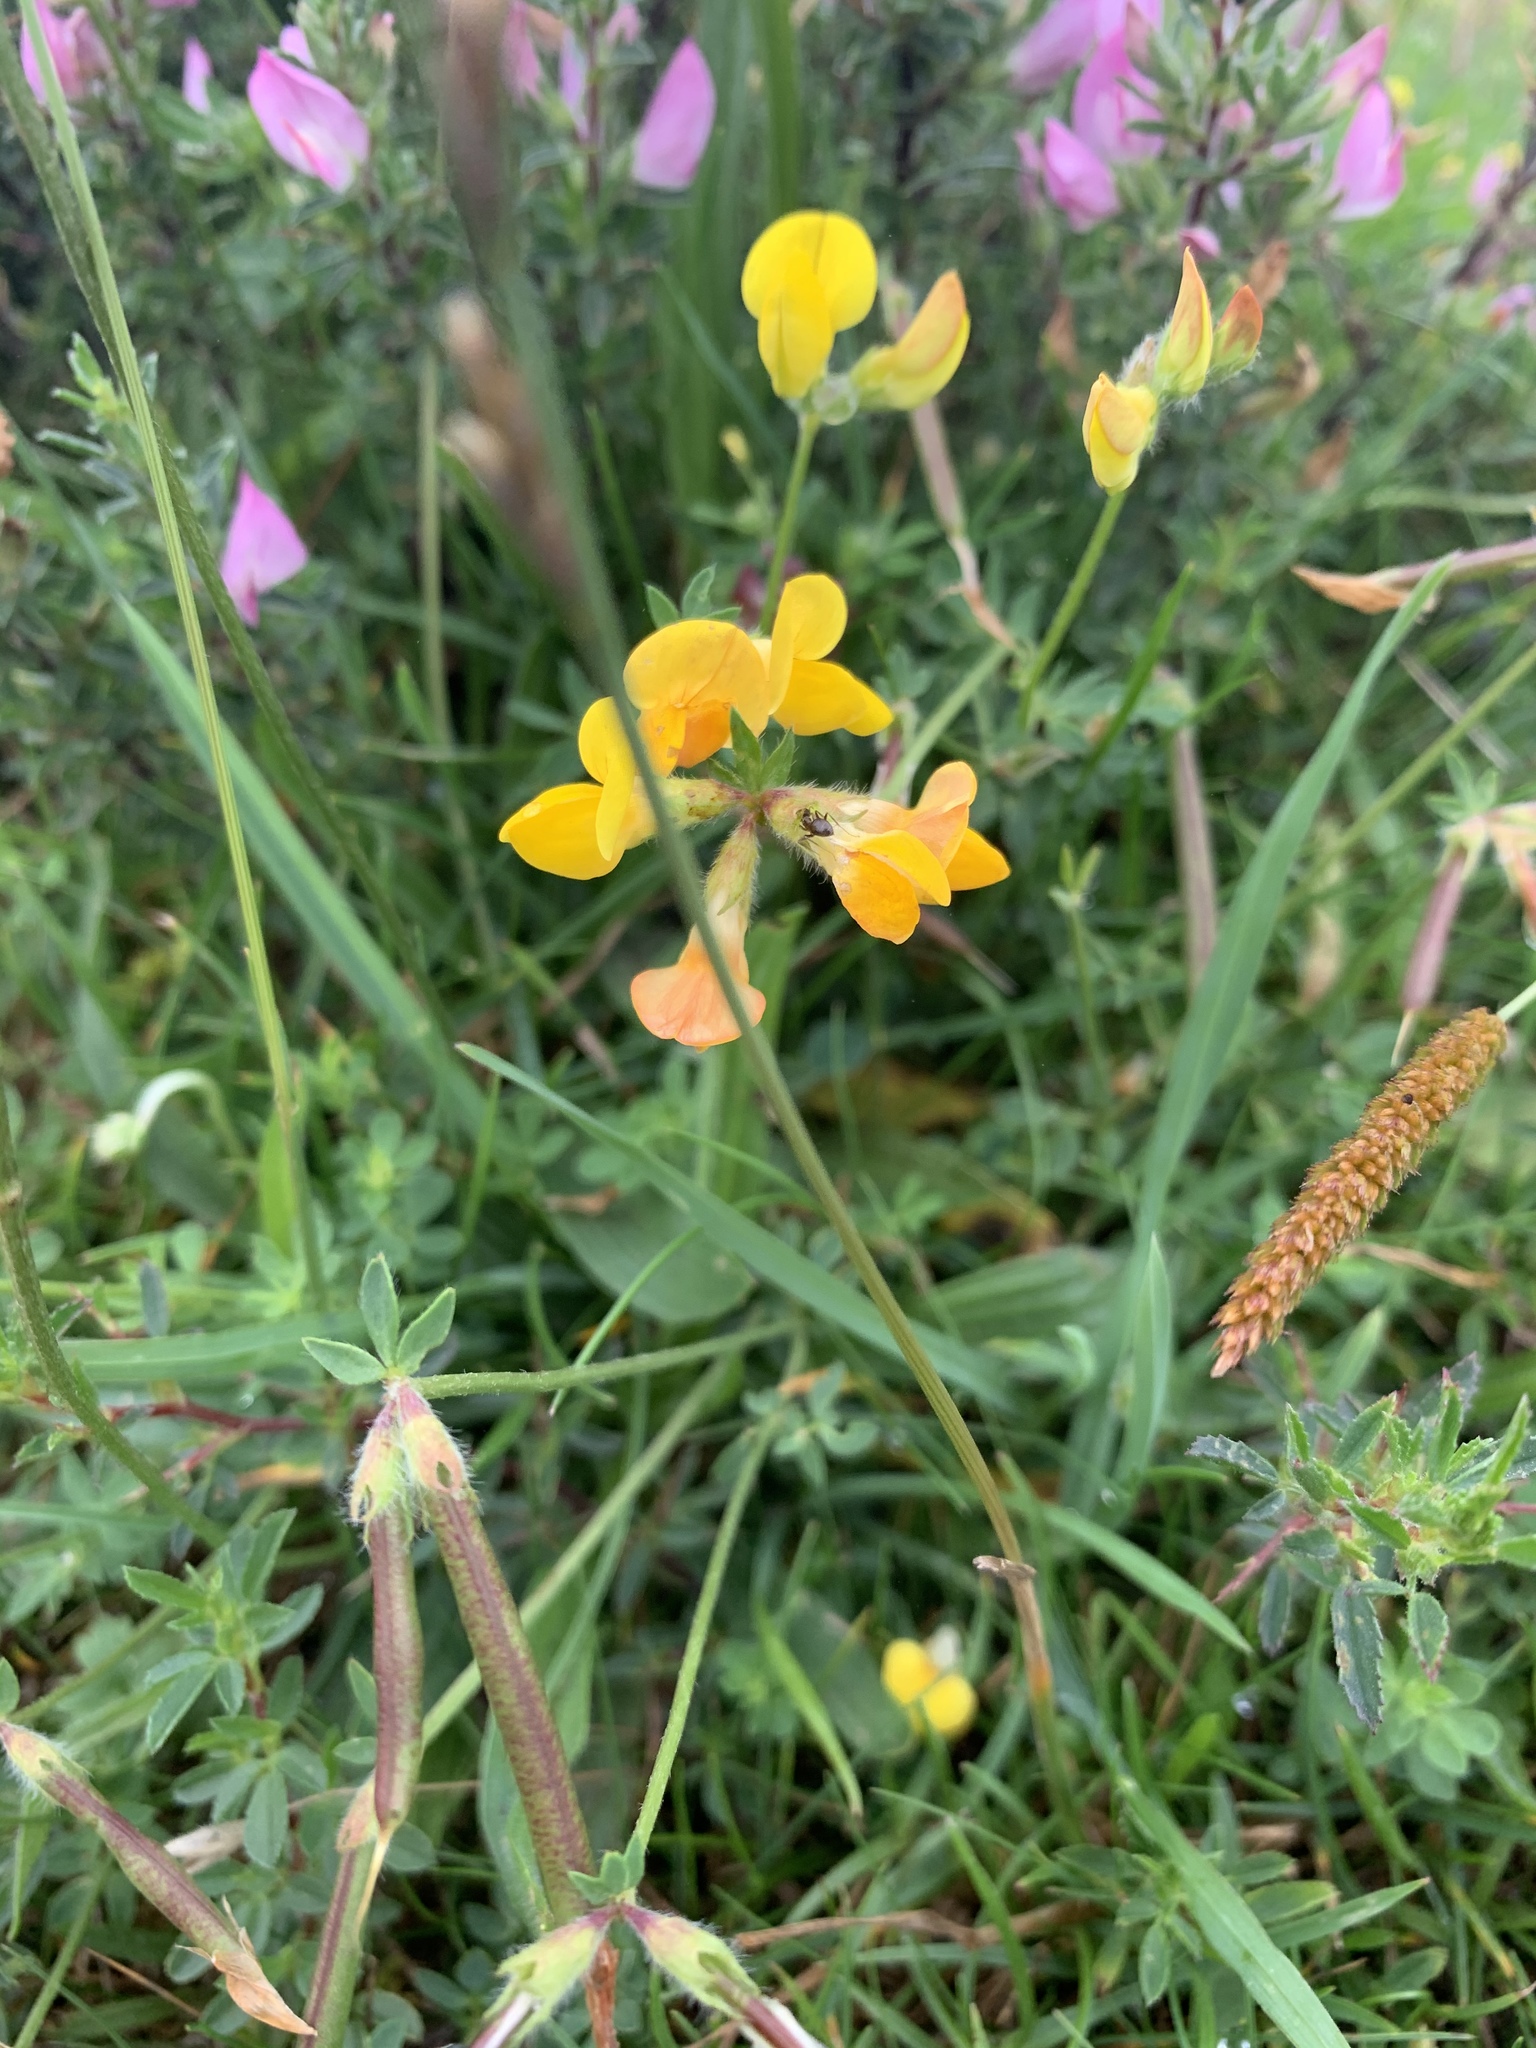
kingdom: Plantae
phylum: Tracheophyta
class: Magnoliopsida
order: Fabales
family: Fabaceae
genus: Lotus
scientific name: Lotus corniculatus
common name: Common bird's-foot-trefoil
